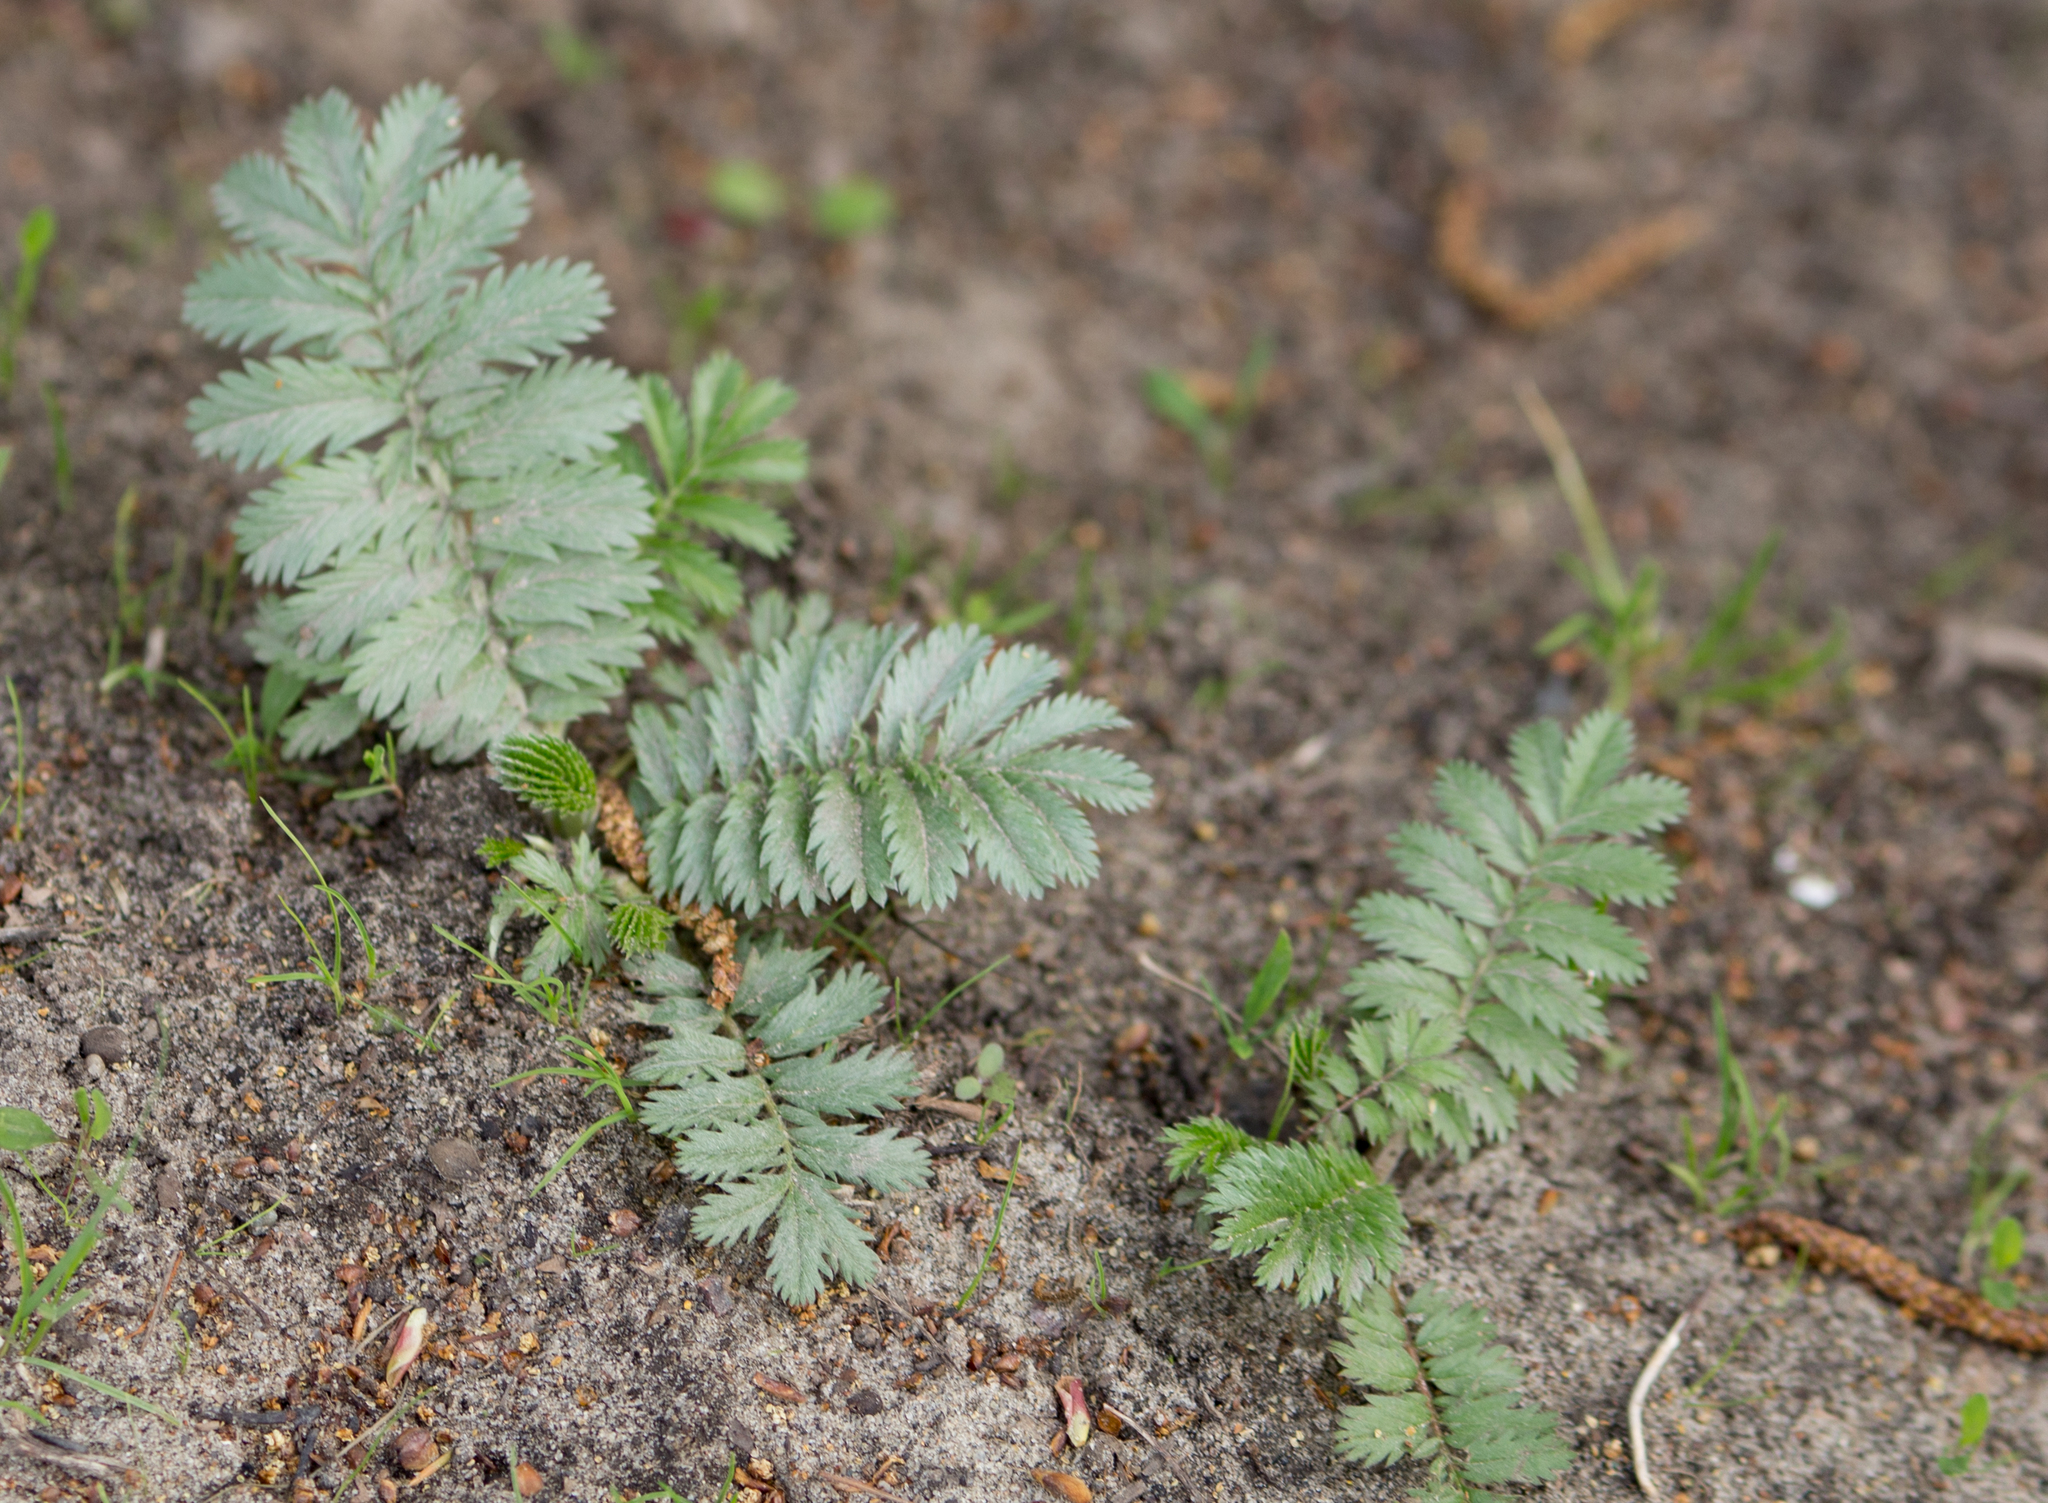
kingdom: Plantae
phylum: Tracheophyta
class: Magnoliopsida
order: Rosales
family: Rosaceae
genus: Argentina
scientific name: Argentina anserina
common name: Common silverweed
